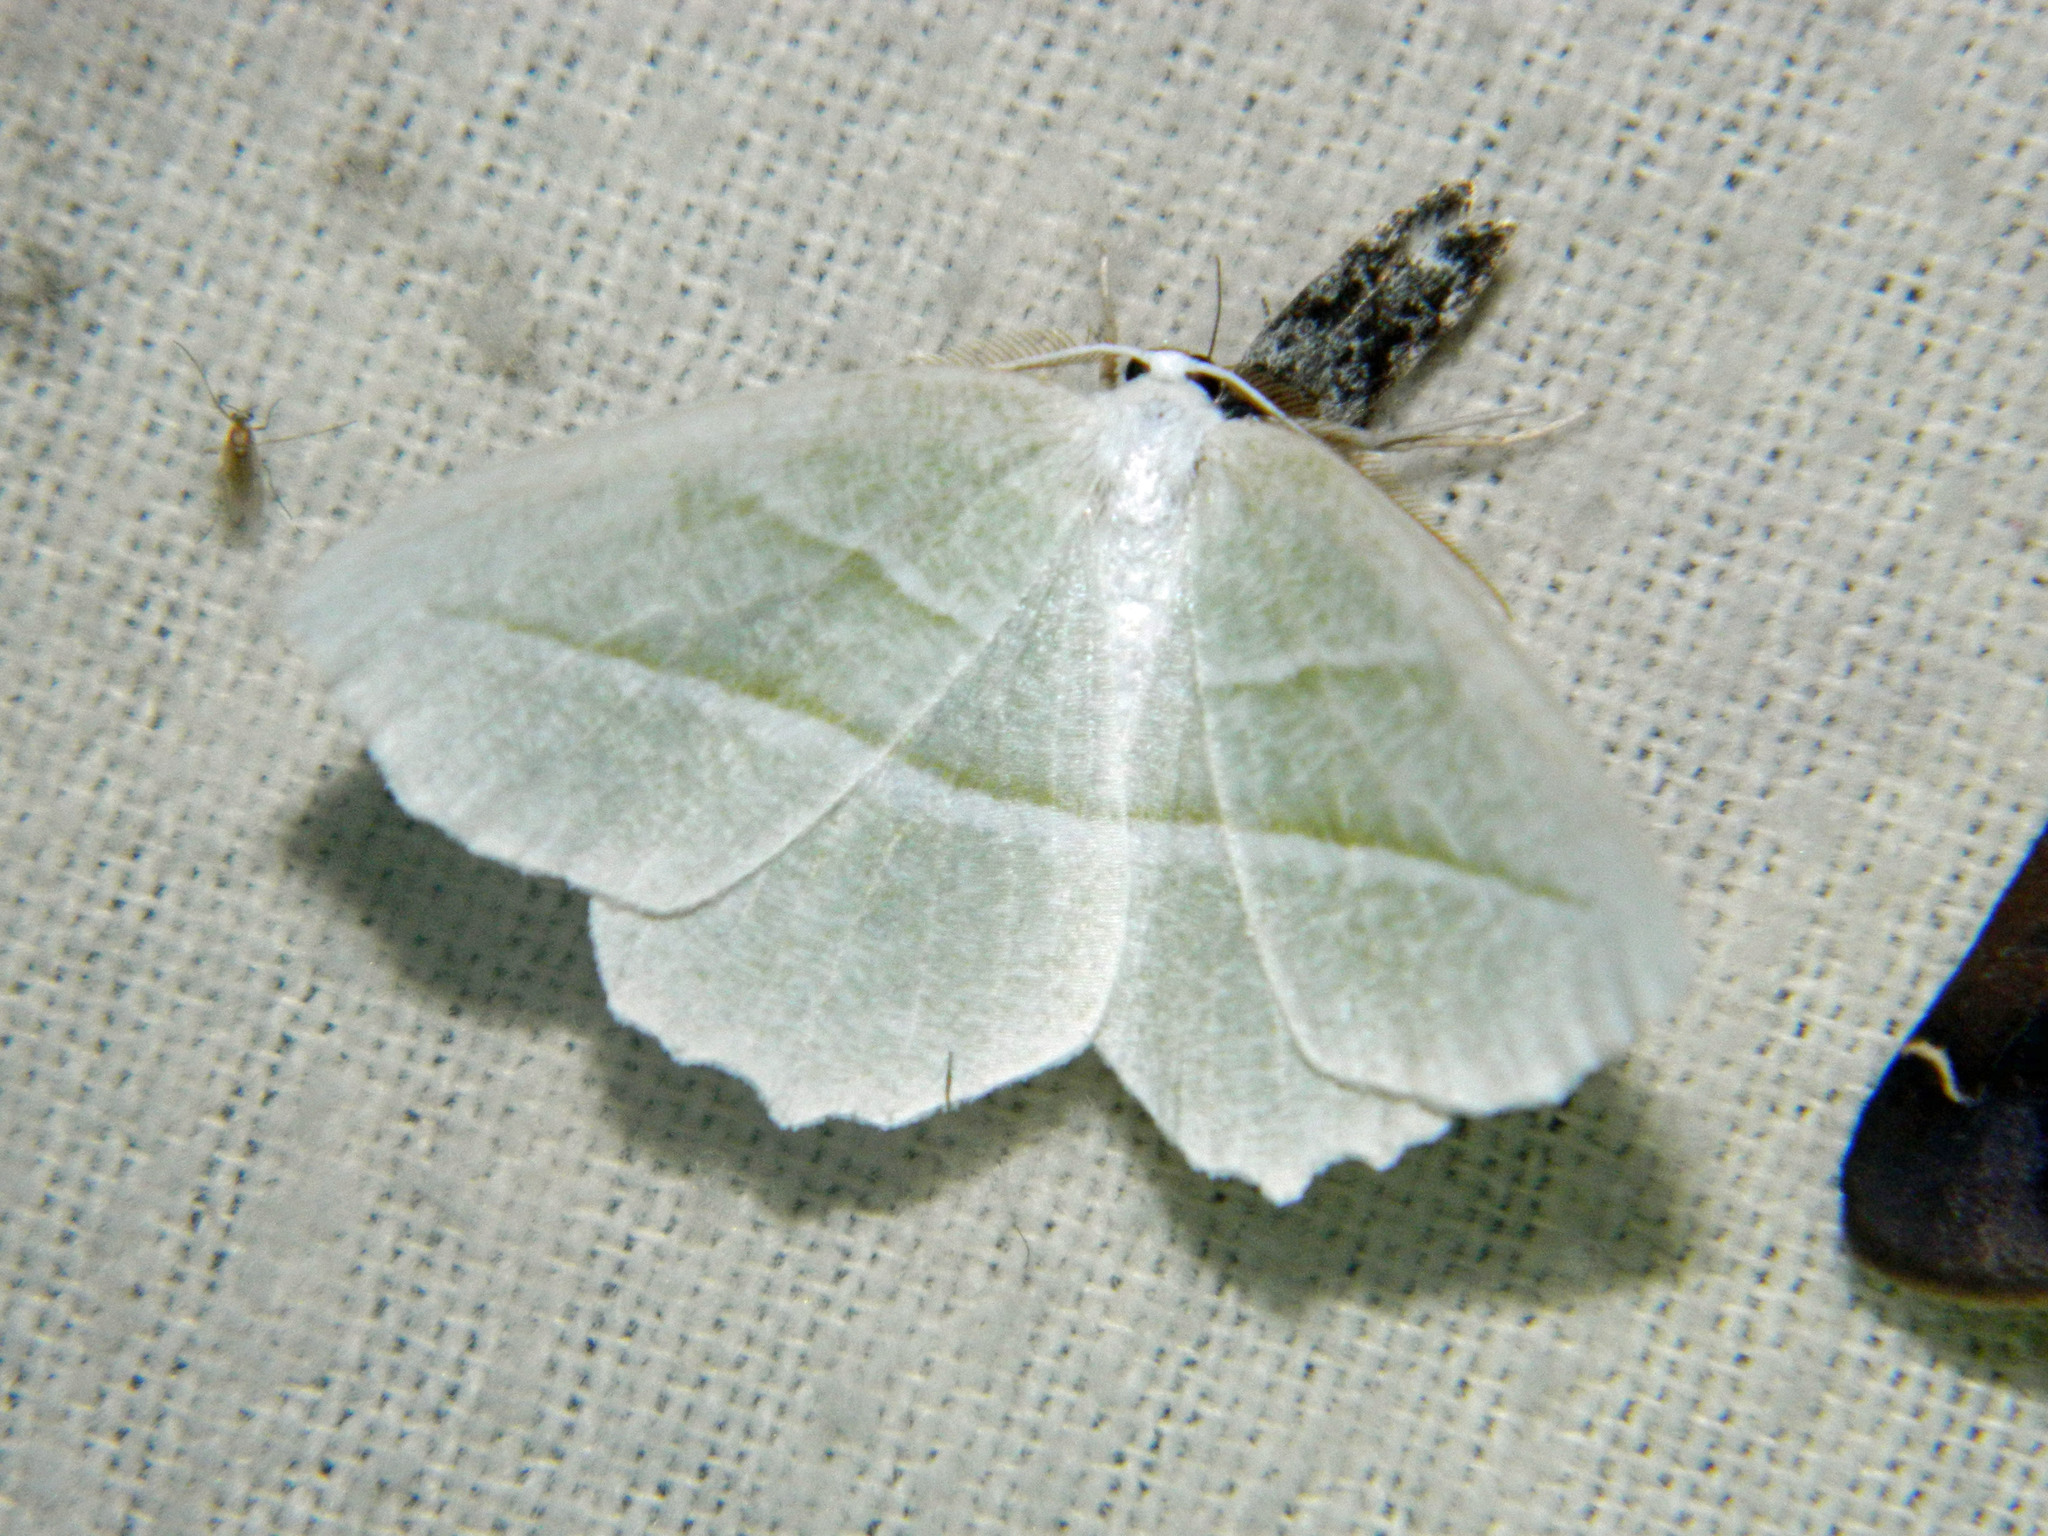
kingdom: Animalia
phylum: Arthropoda
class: Insecta
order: Lepidoptera
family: Geometridae
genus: Campaea
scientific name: Campaea perlata
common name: Fringed looper
